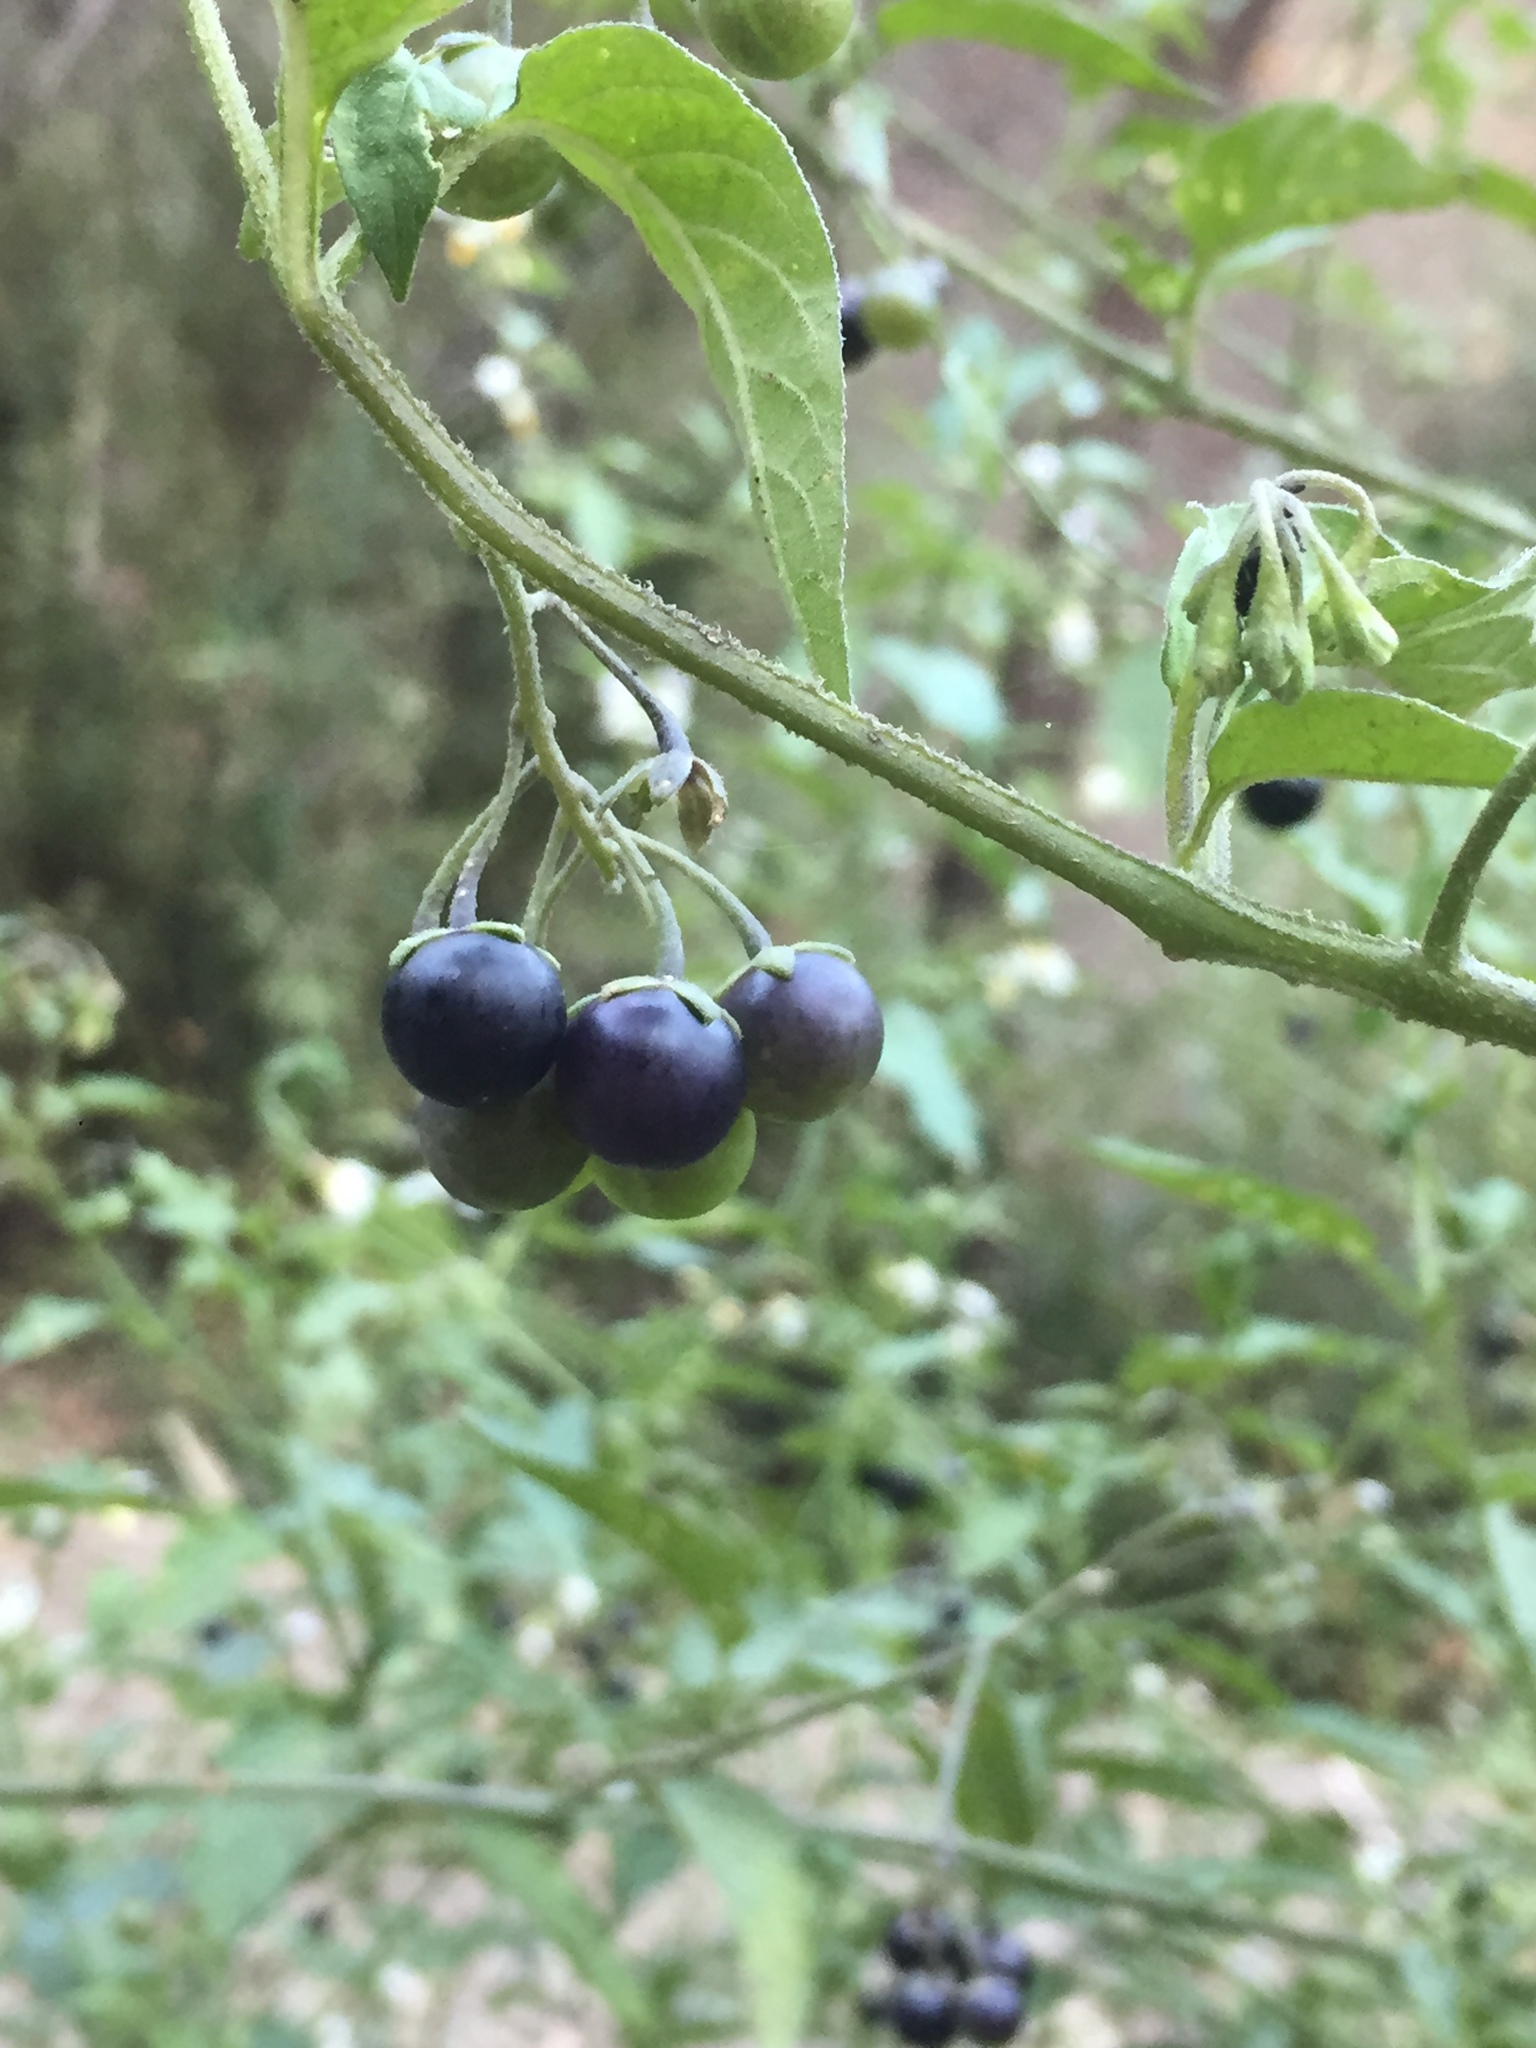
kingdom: Plantae
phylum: Tracheophyta
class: Magnoliopsida
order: Solanales
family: Solanaceae
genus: Solanum
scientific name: Solanum douglasii
